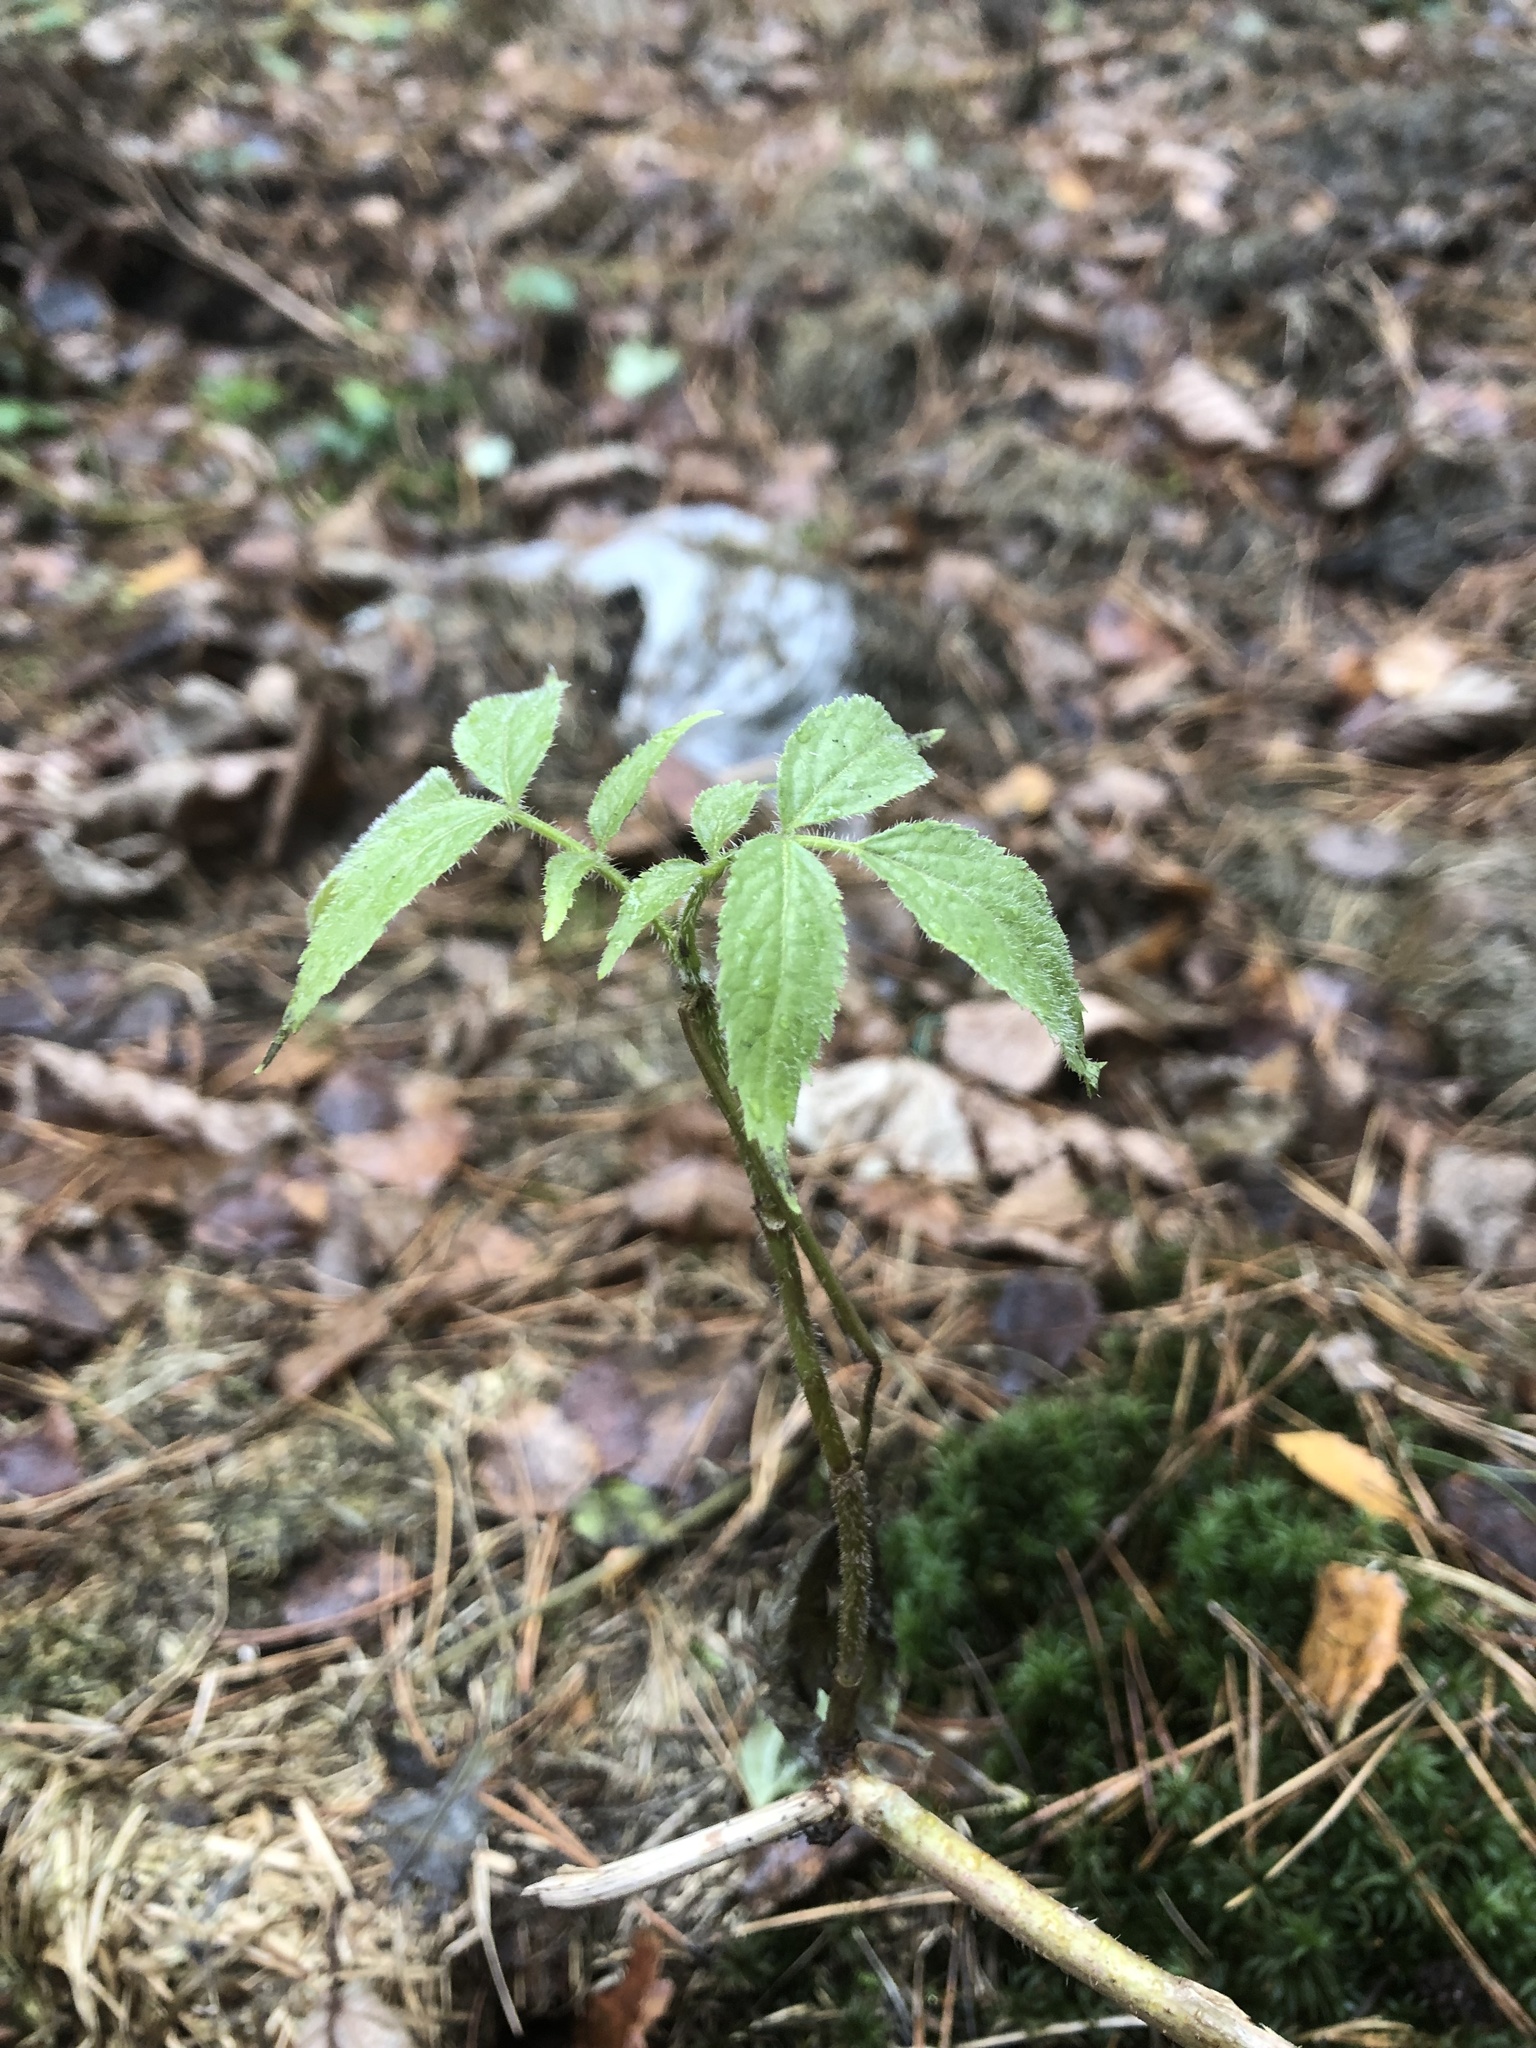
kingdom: Plantae
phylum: Tracheophyta
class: Magnoliopsida
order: Dipsacales
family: Viburnaceae
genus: Sambucus
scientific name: Sambucus racemosa
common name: Red-berried elder
